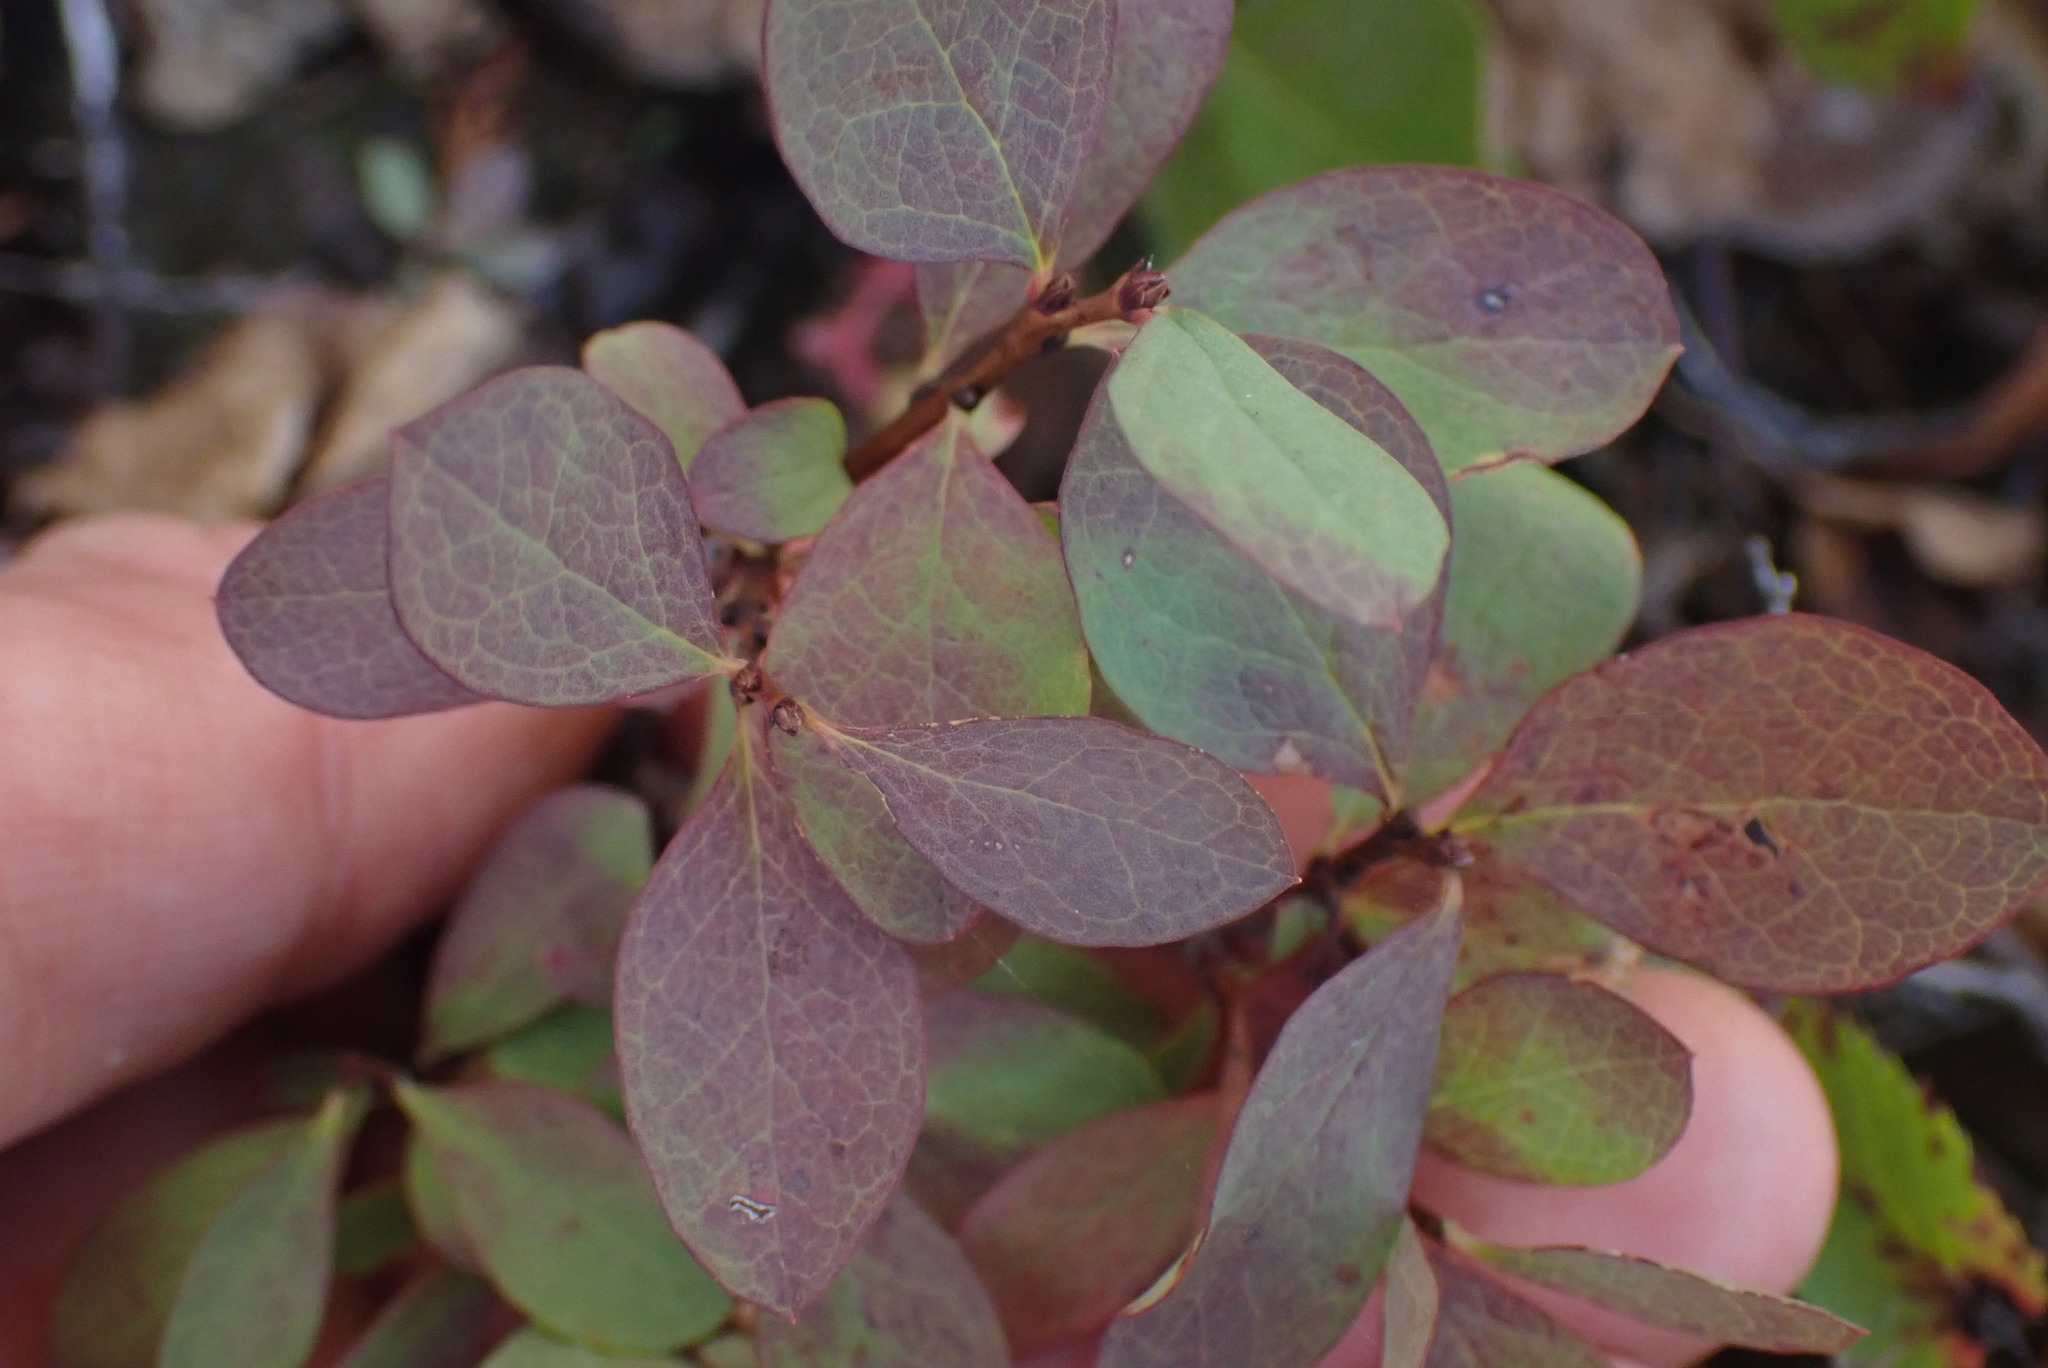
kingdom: Plantae
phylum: Tracheophyta
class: Magnoliopsida
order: Ericales
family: Ericaceae
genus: Vaccinium
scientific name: Vaccinium uliginosum
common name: Bog bilberry
